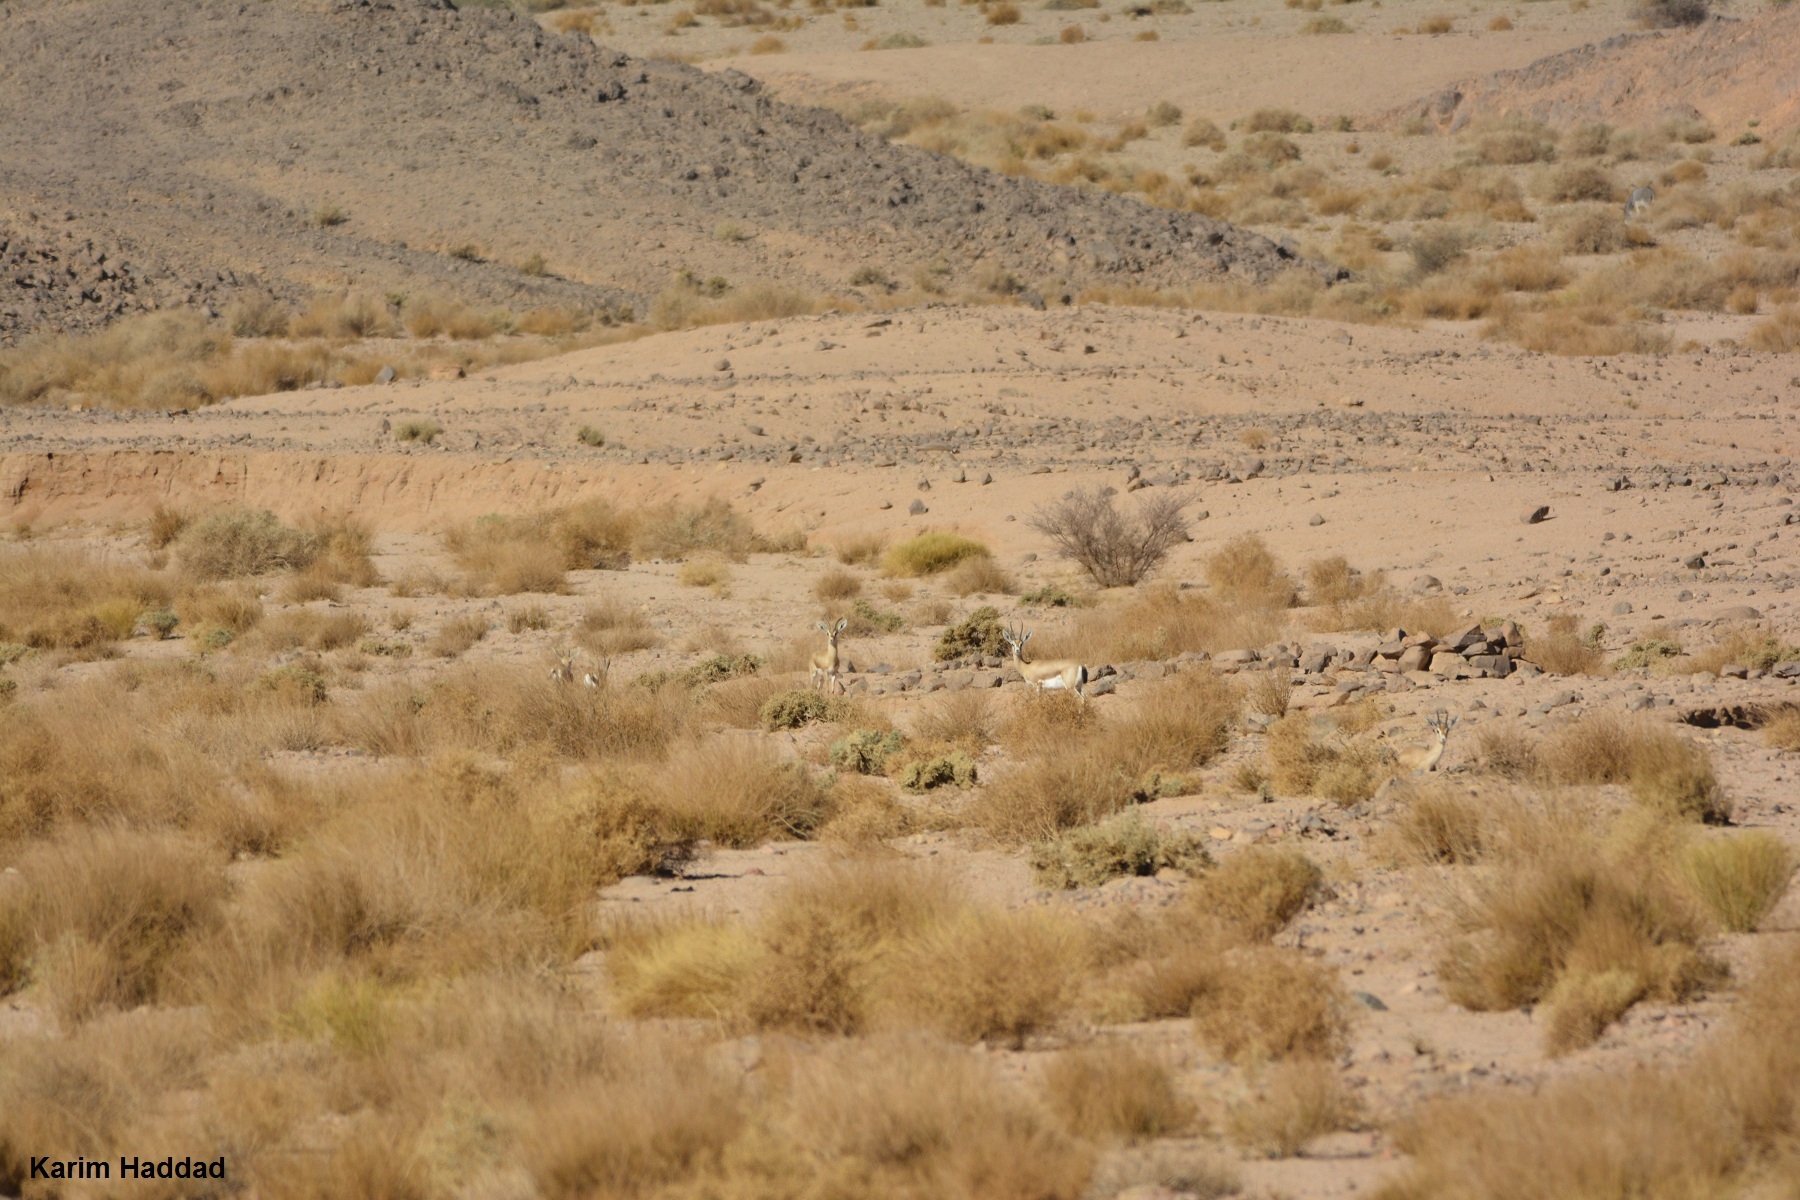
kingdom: Animalia
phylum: Chordata
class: Mammalia
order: Artiodactyla
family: Bovidae
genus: Gazella
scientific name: Gazella dorcas
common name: Dorcas gazelle
